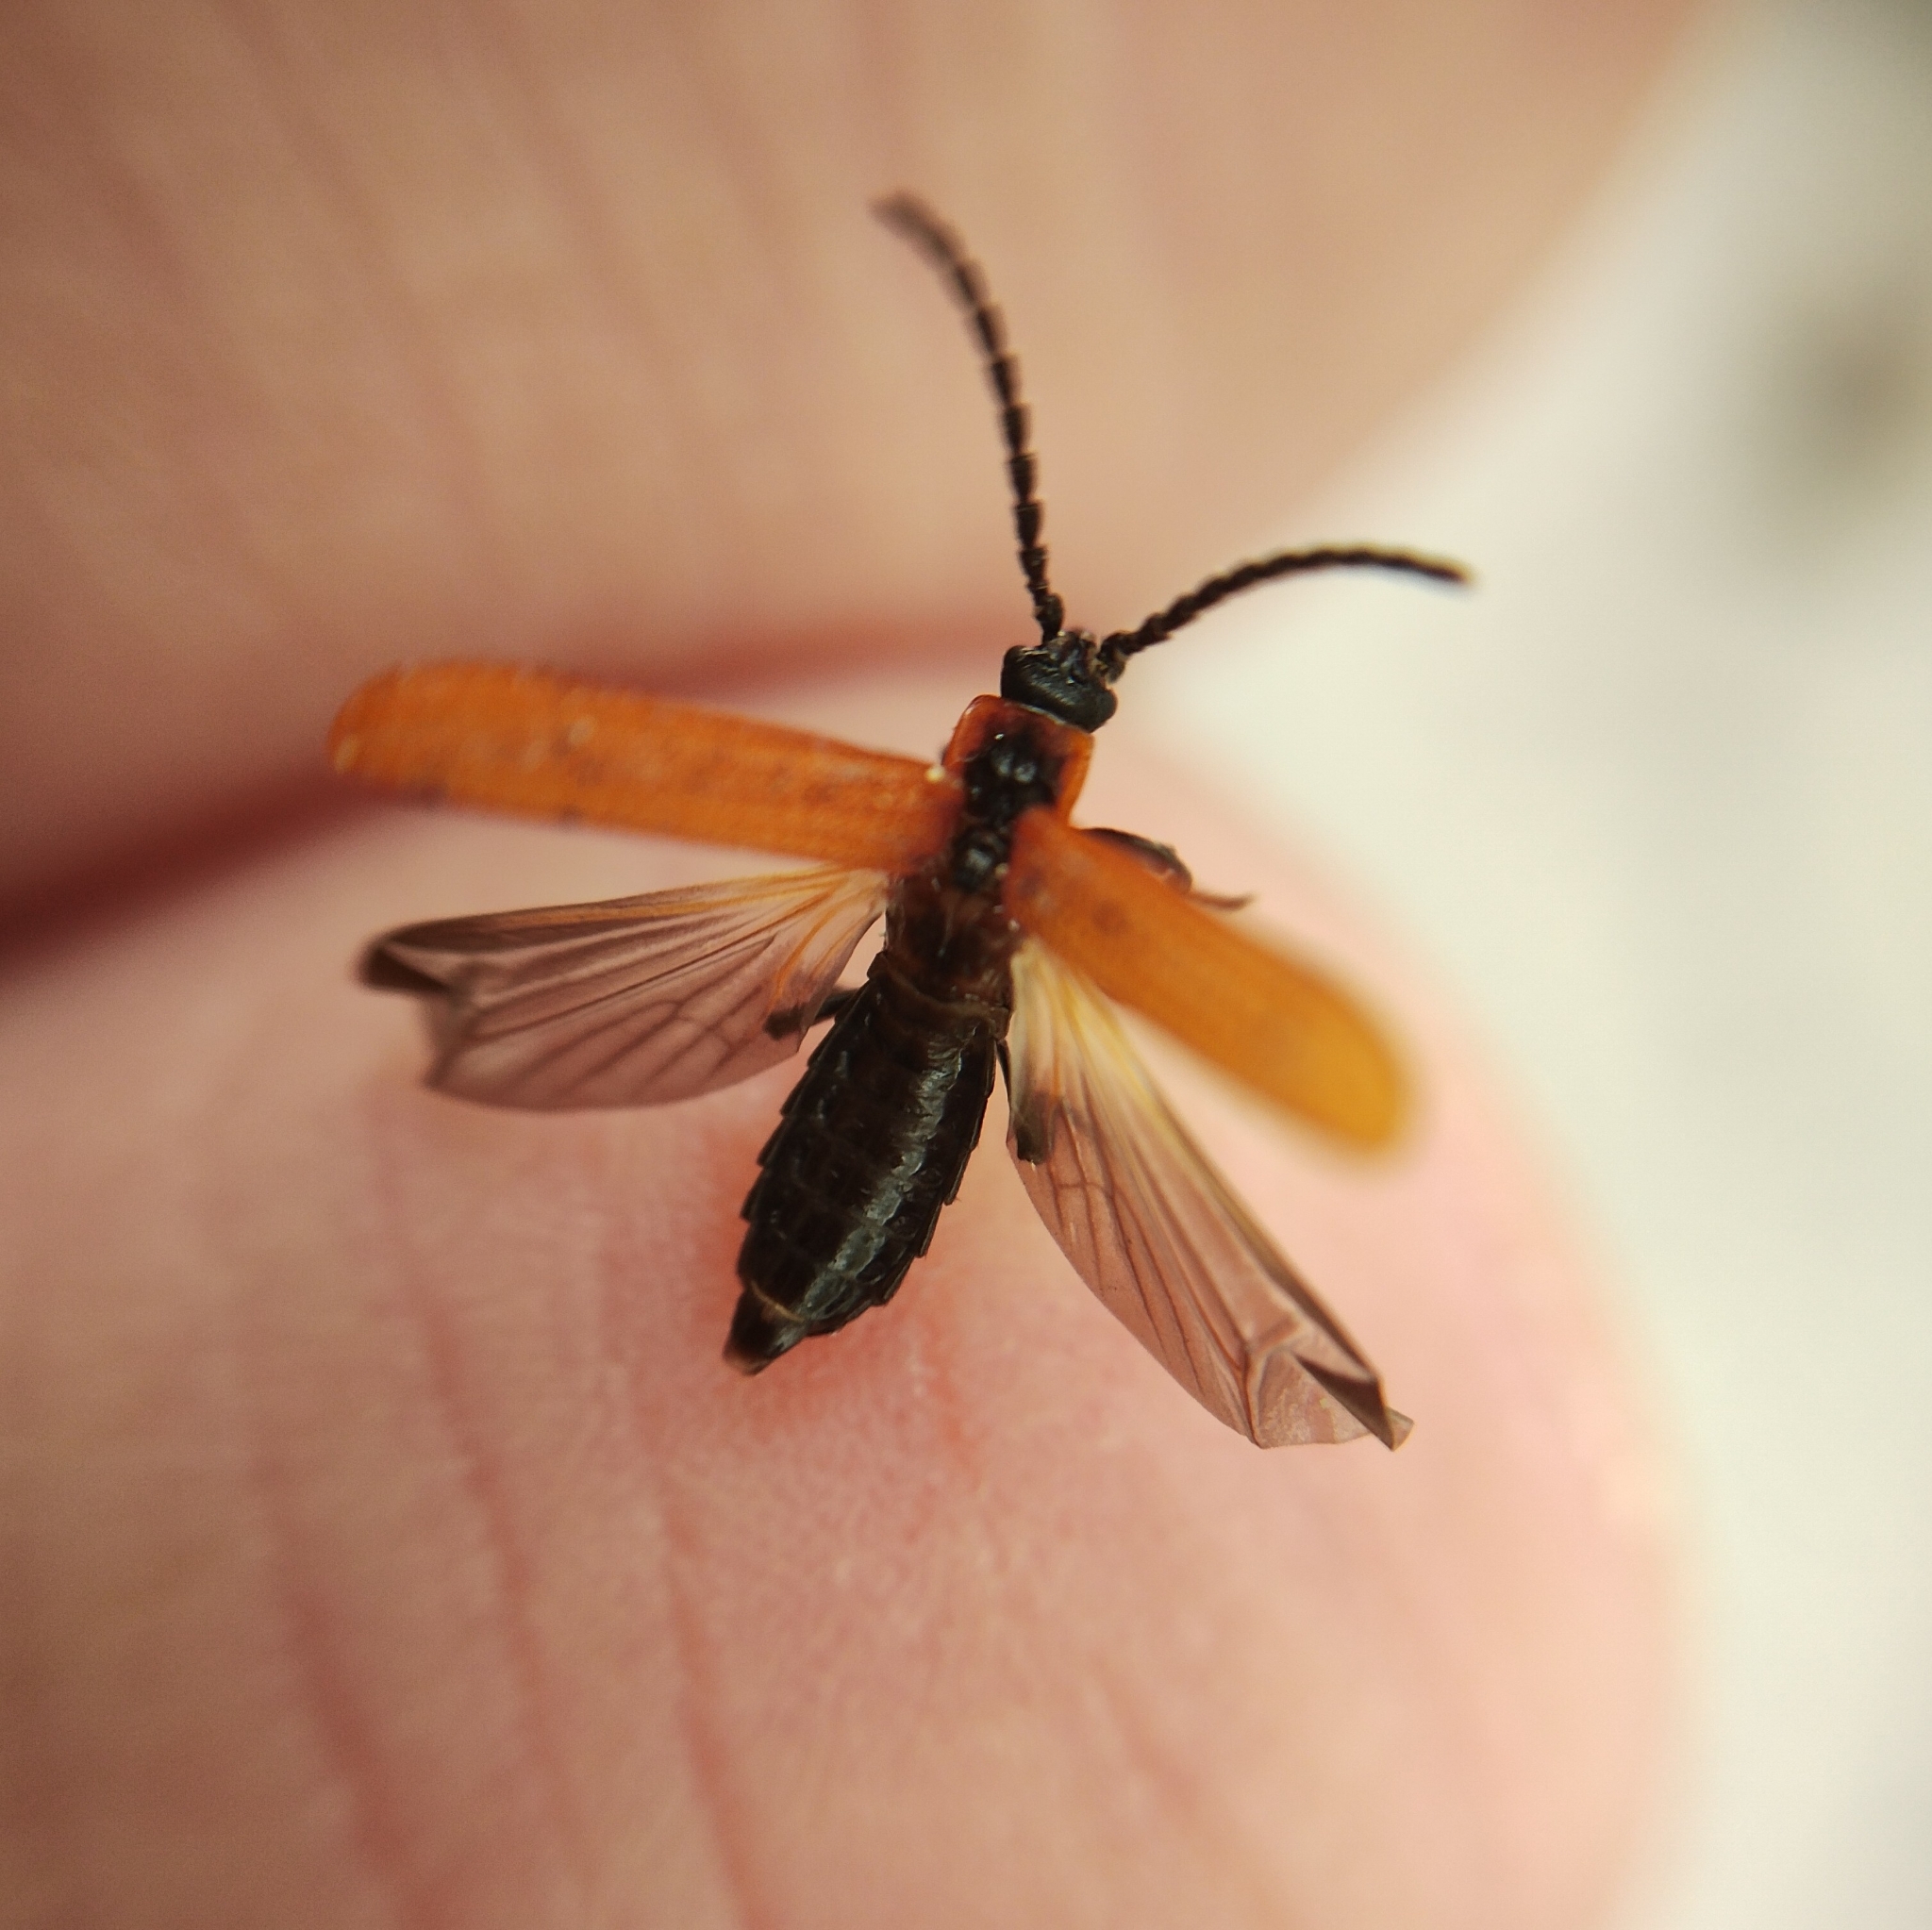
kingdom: Animalia
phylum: Arthropoda
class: Insecta
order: Coleoptera
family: Lycidae
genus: Erotides
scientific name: Erotides cosnardi
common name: Cosnard's net-winged beetle
